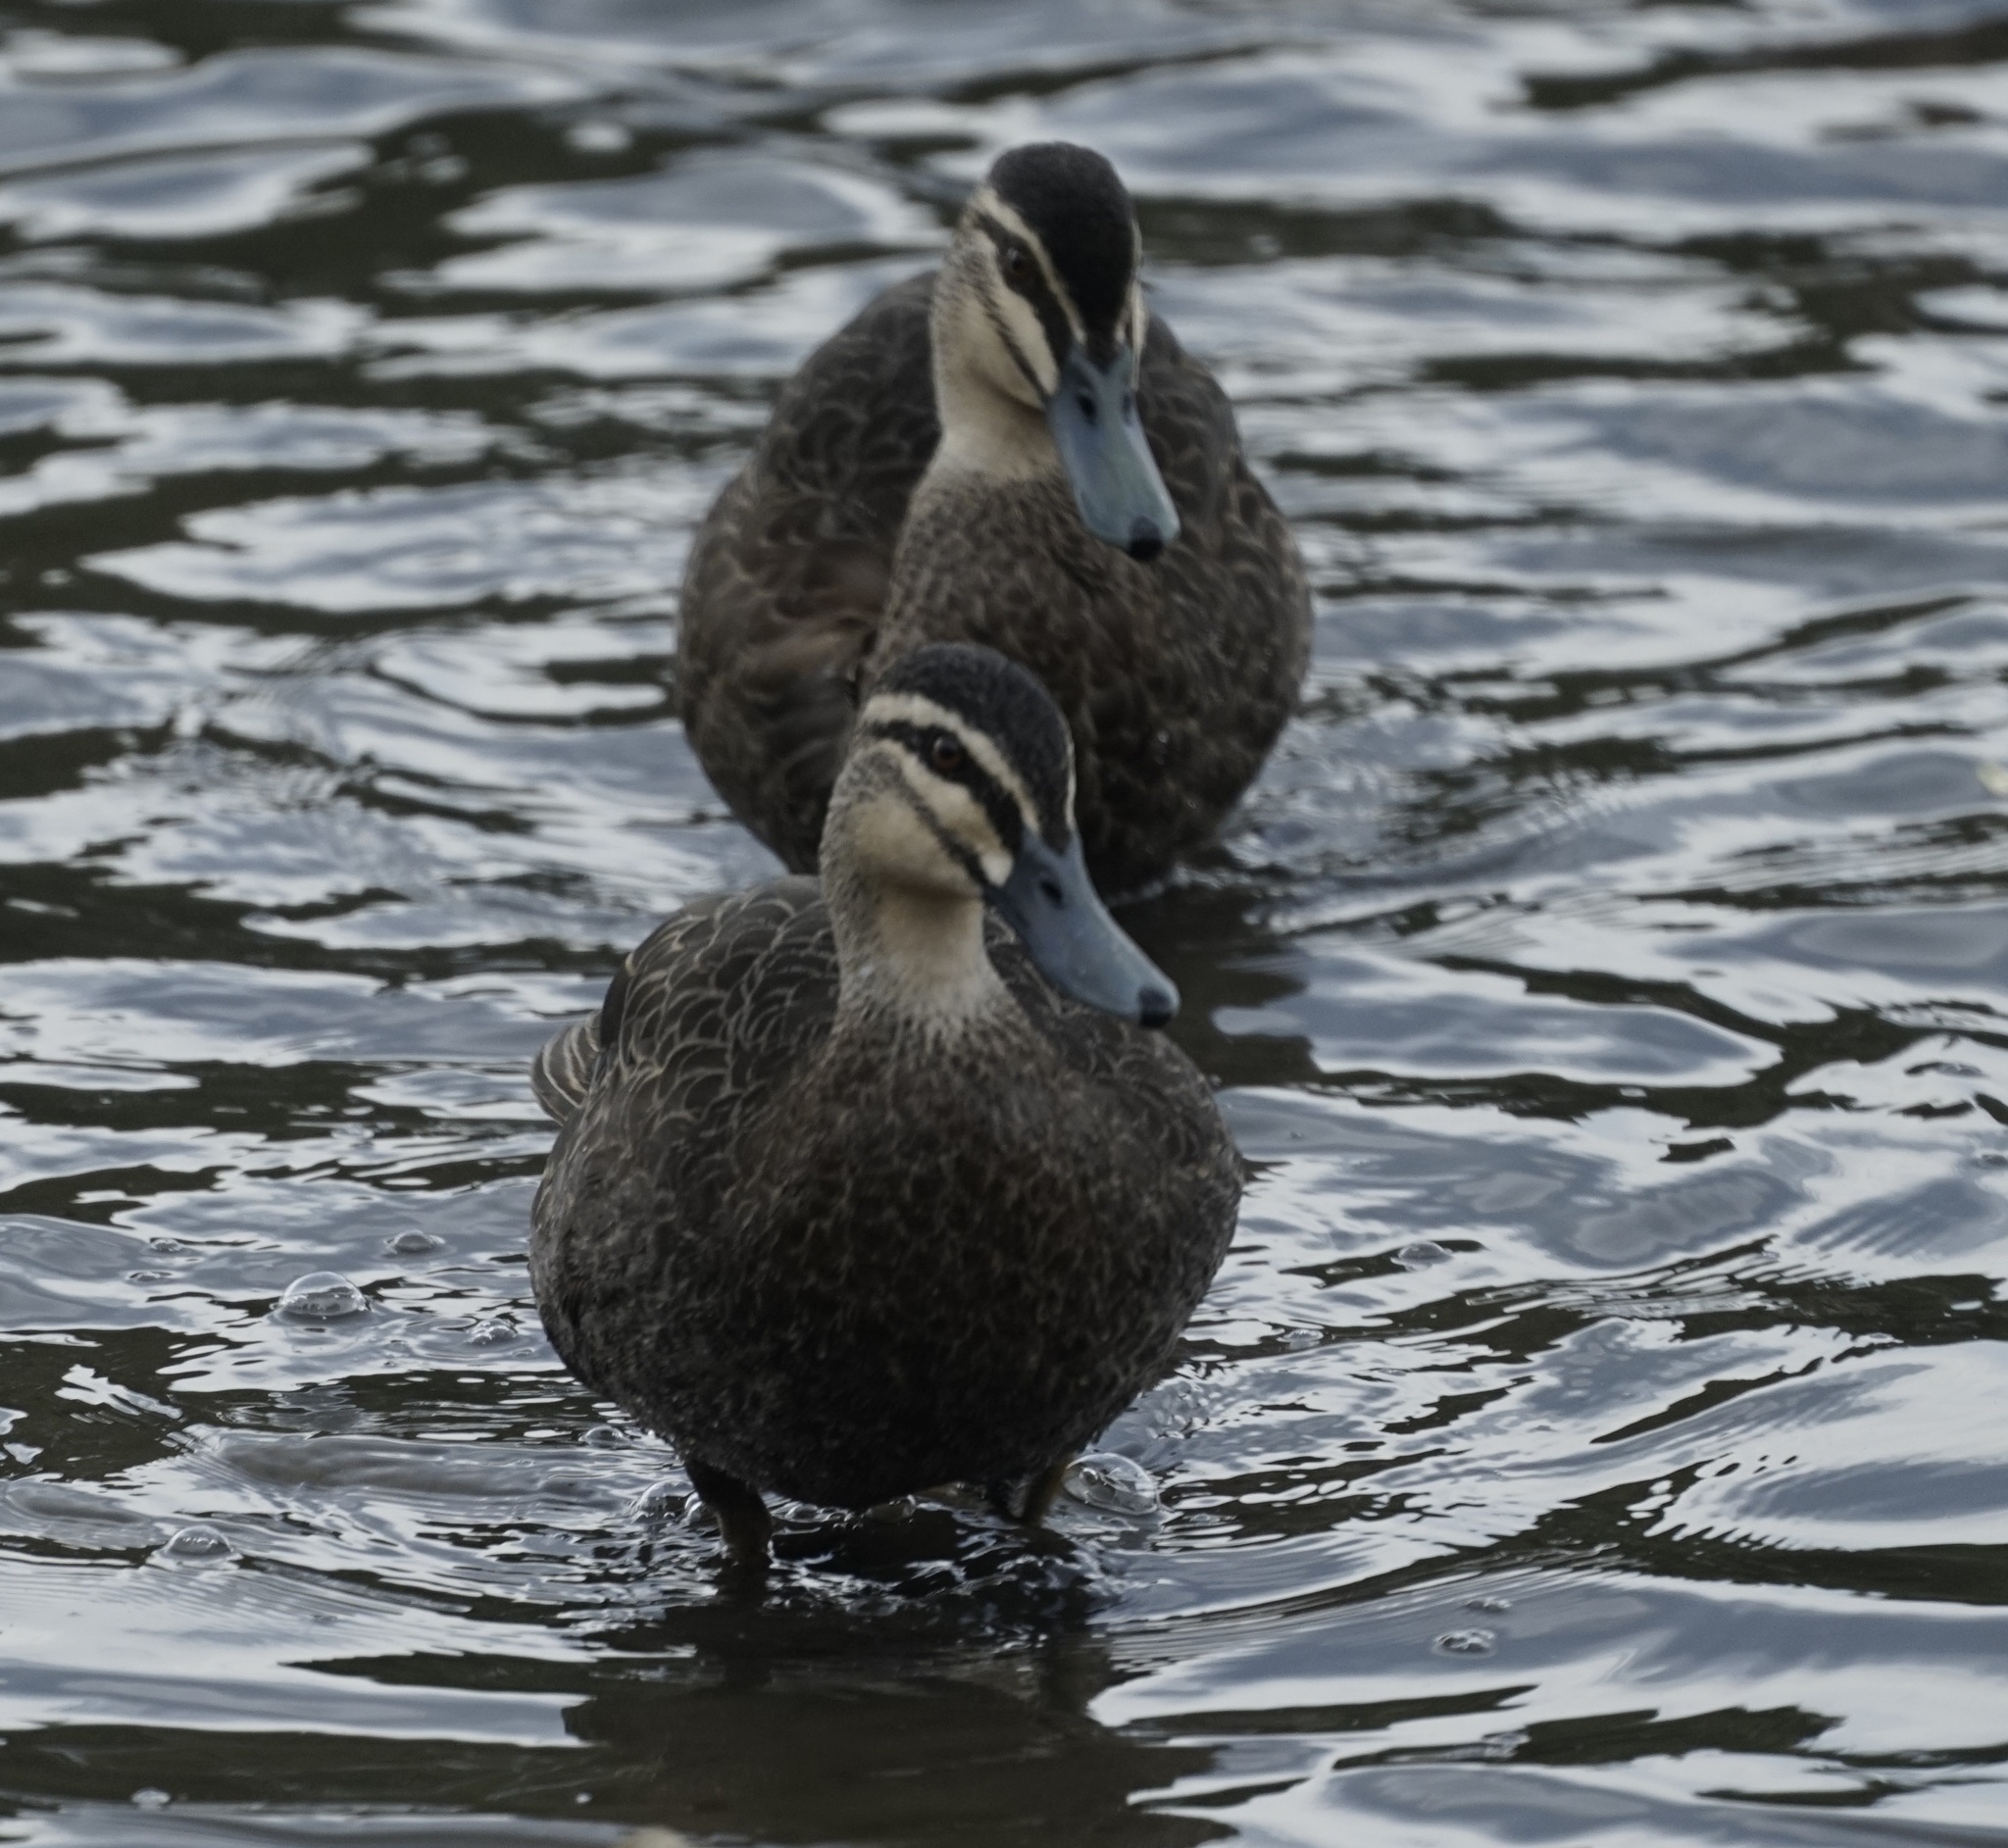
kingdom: Animalia
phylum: Chordata
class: Aves
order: Anseriformes
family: Anatidae
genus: Anas
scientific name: Anas superciliosa
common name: Pacific black duck
